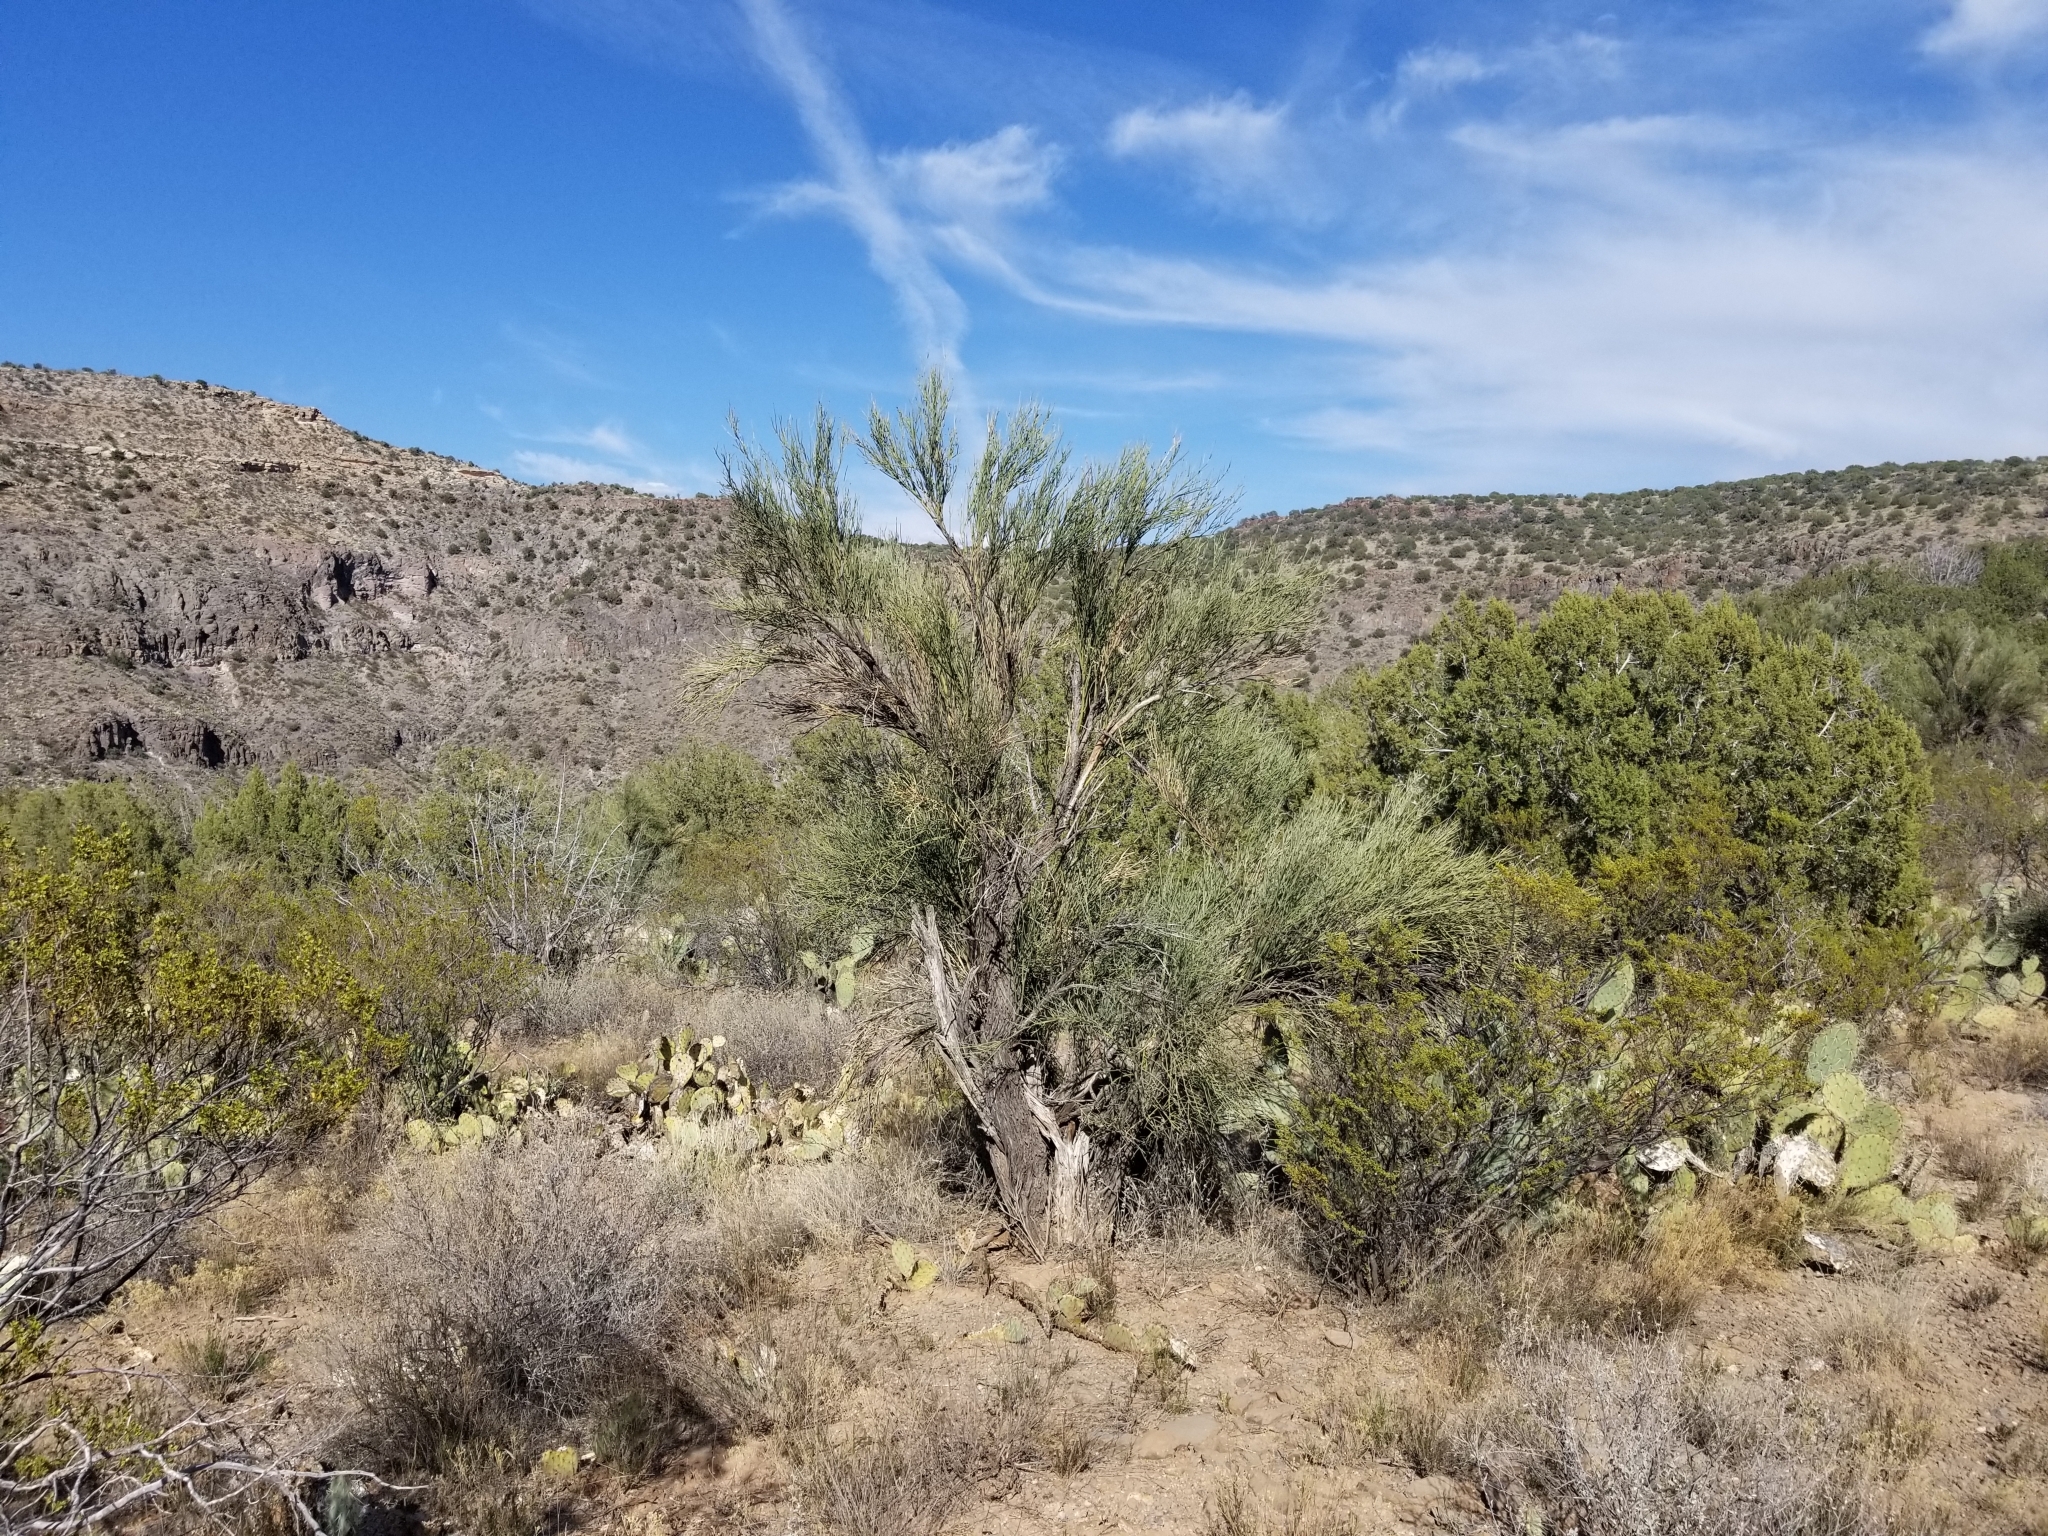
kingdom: Plantae
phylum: Tracheophyta
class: Magnoliopsida
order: Celastrales
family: Celastraceae
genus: Canotia
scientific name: Canotia holacantha
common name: Crucifixion thorns
